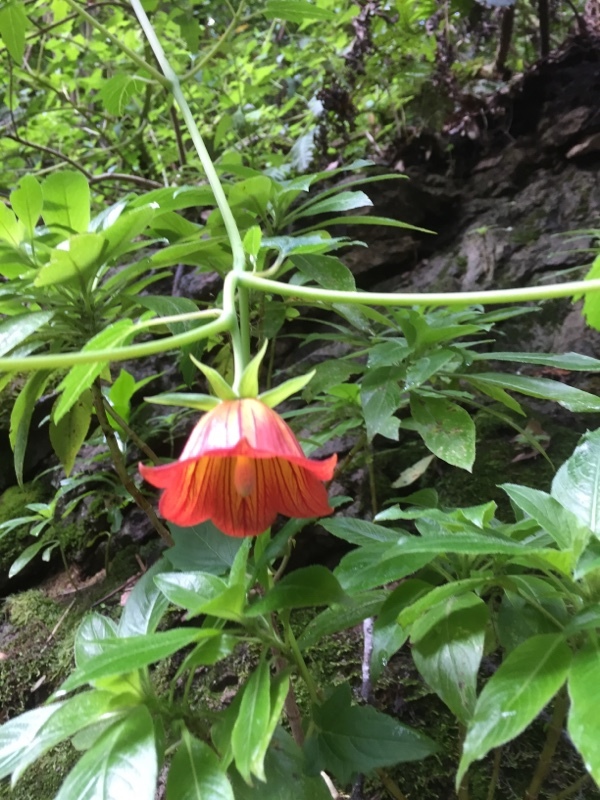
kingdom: Plantae
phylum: Tracheophyta
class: Magnoliopsida
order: Asterales
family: Campanulaceae
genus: Canarina
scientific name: Canarina canariensis
